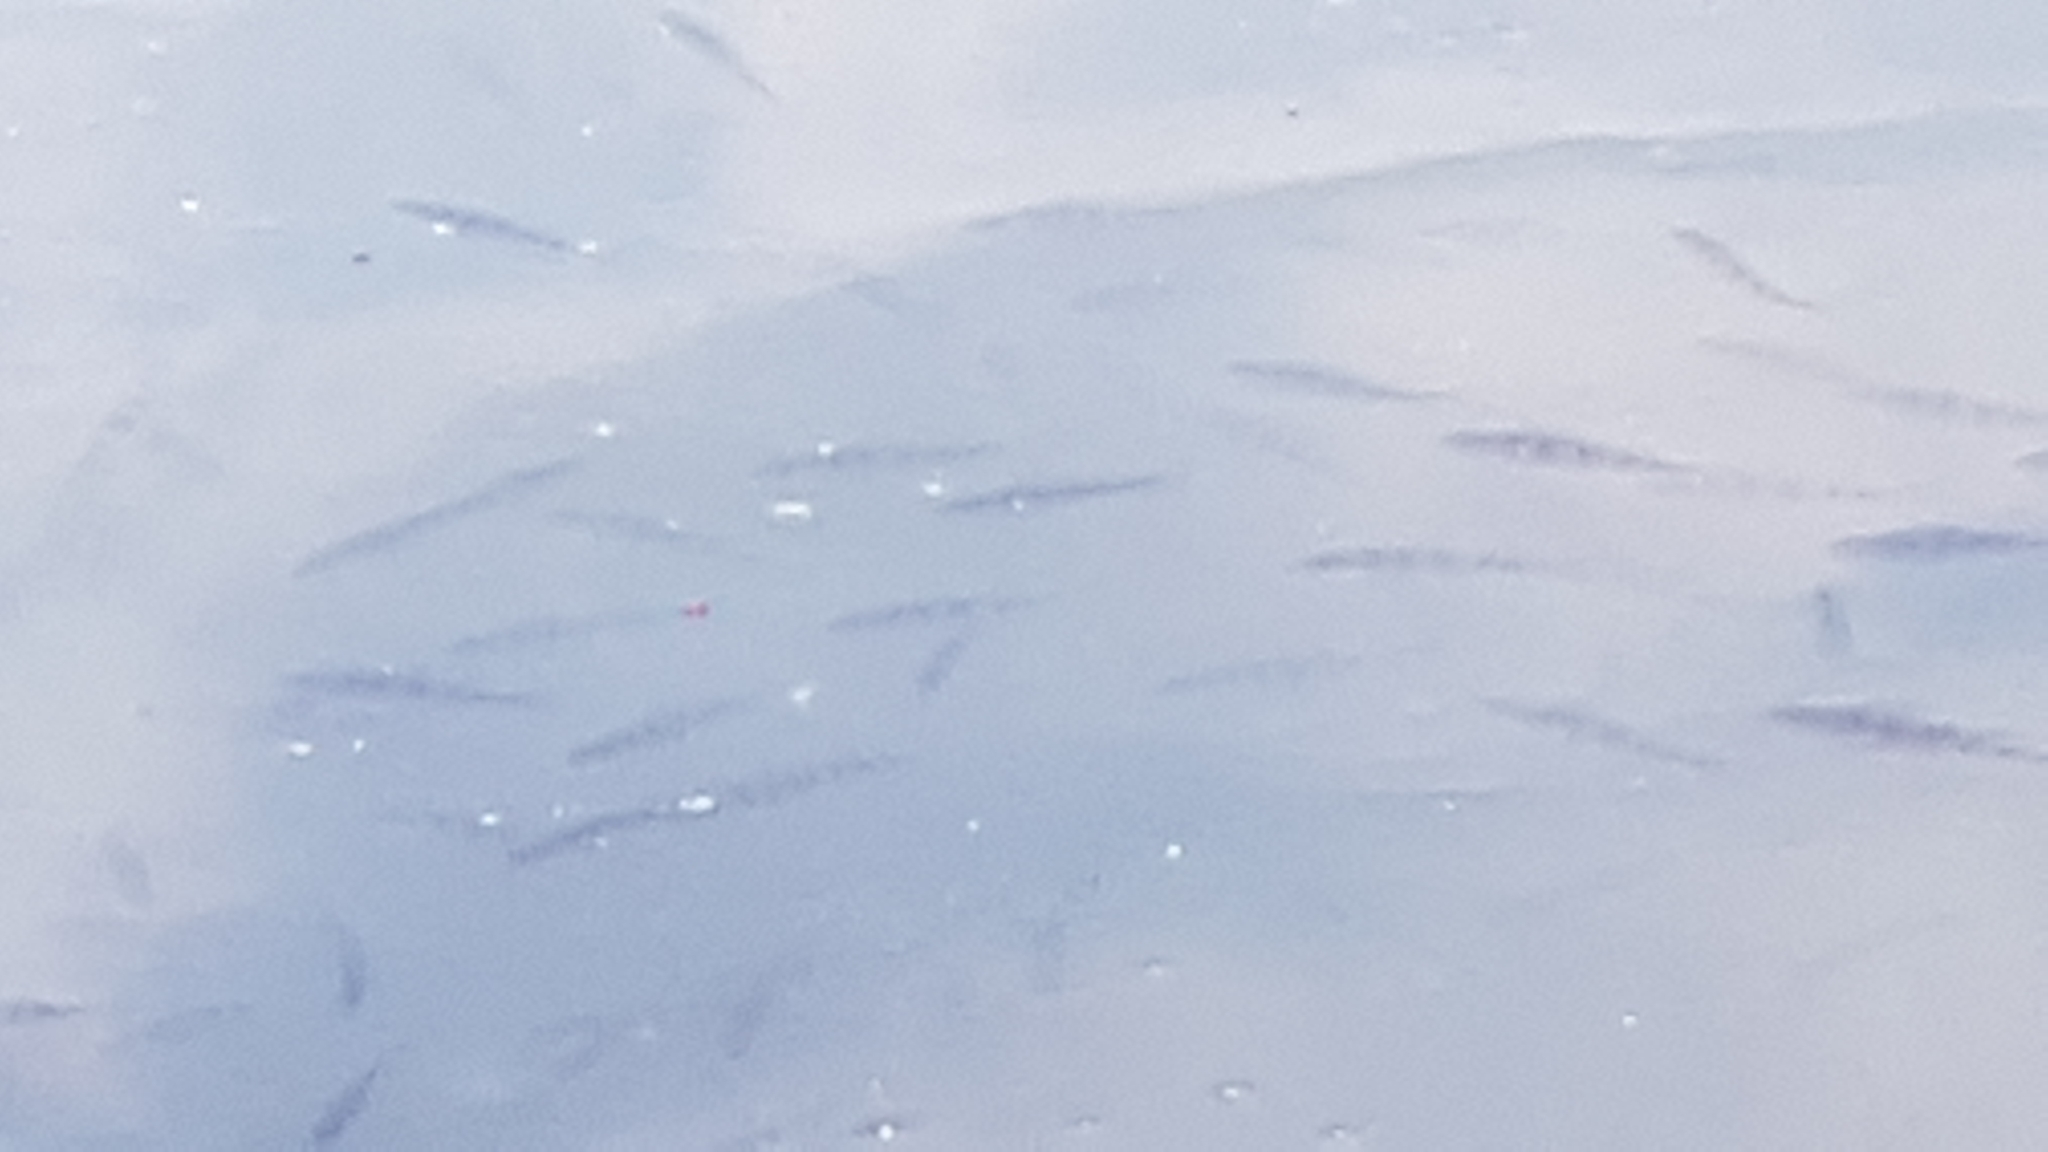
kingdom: Animalia
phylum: Chordata
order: Perciformes
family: Percidae
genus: Perca
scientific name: Perca fluviatilis
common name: Perch
